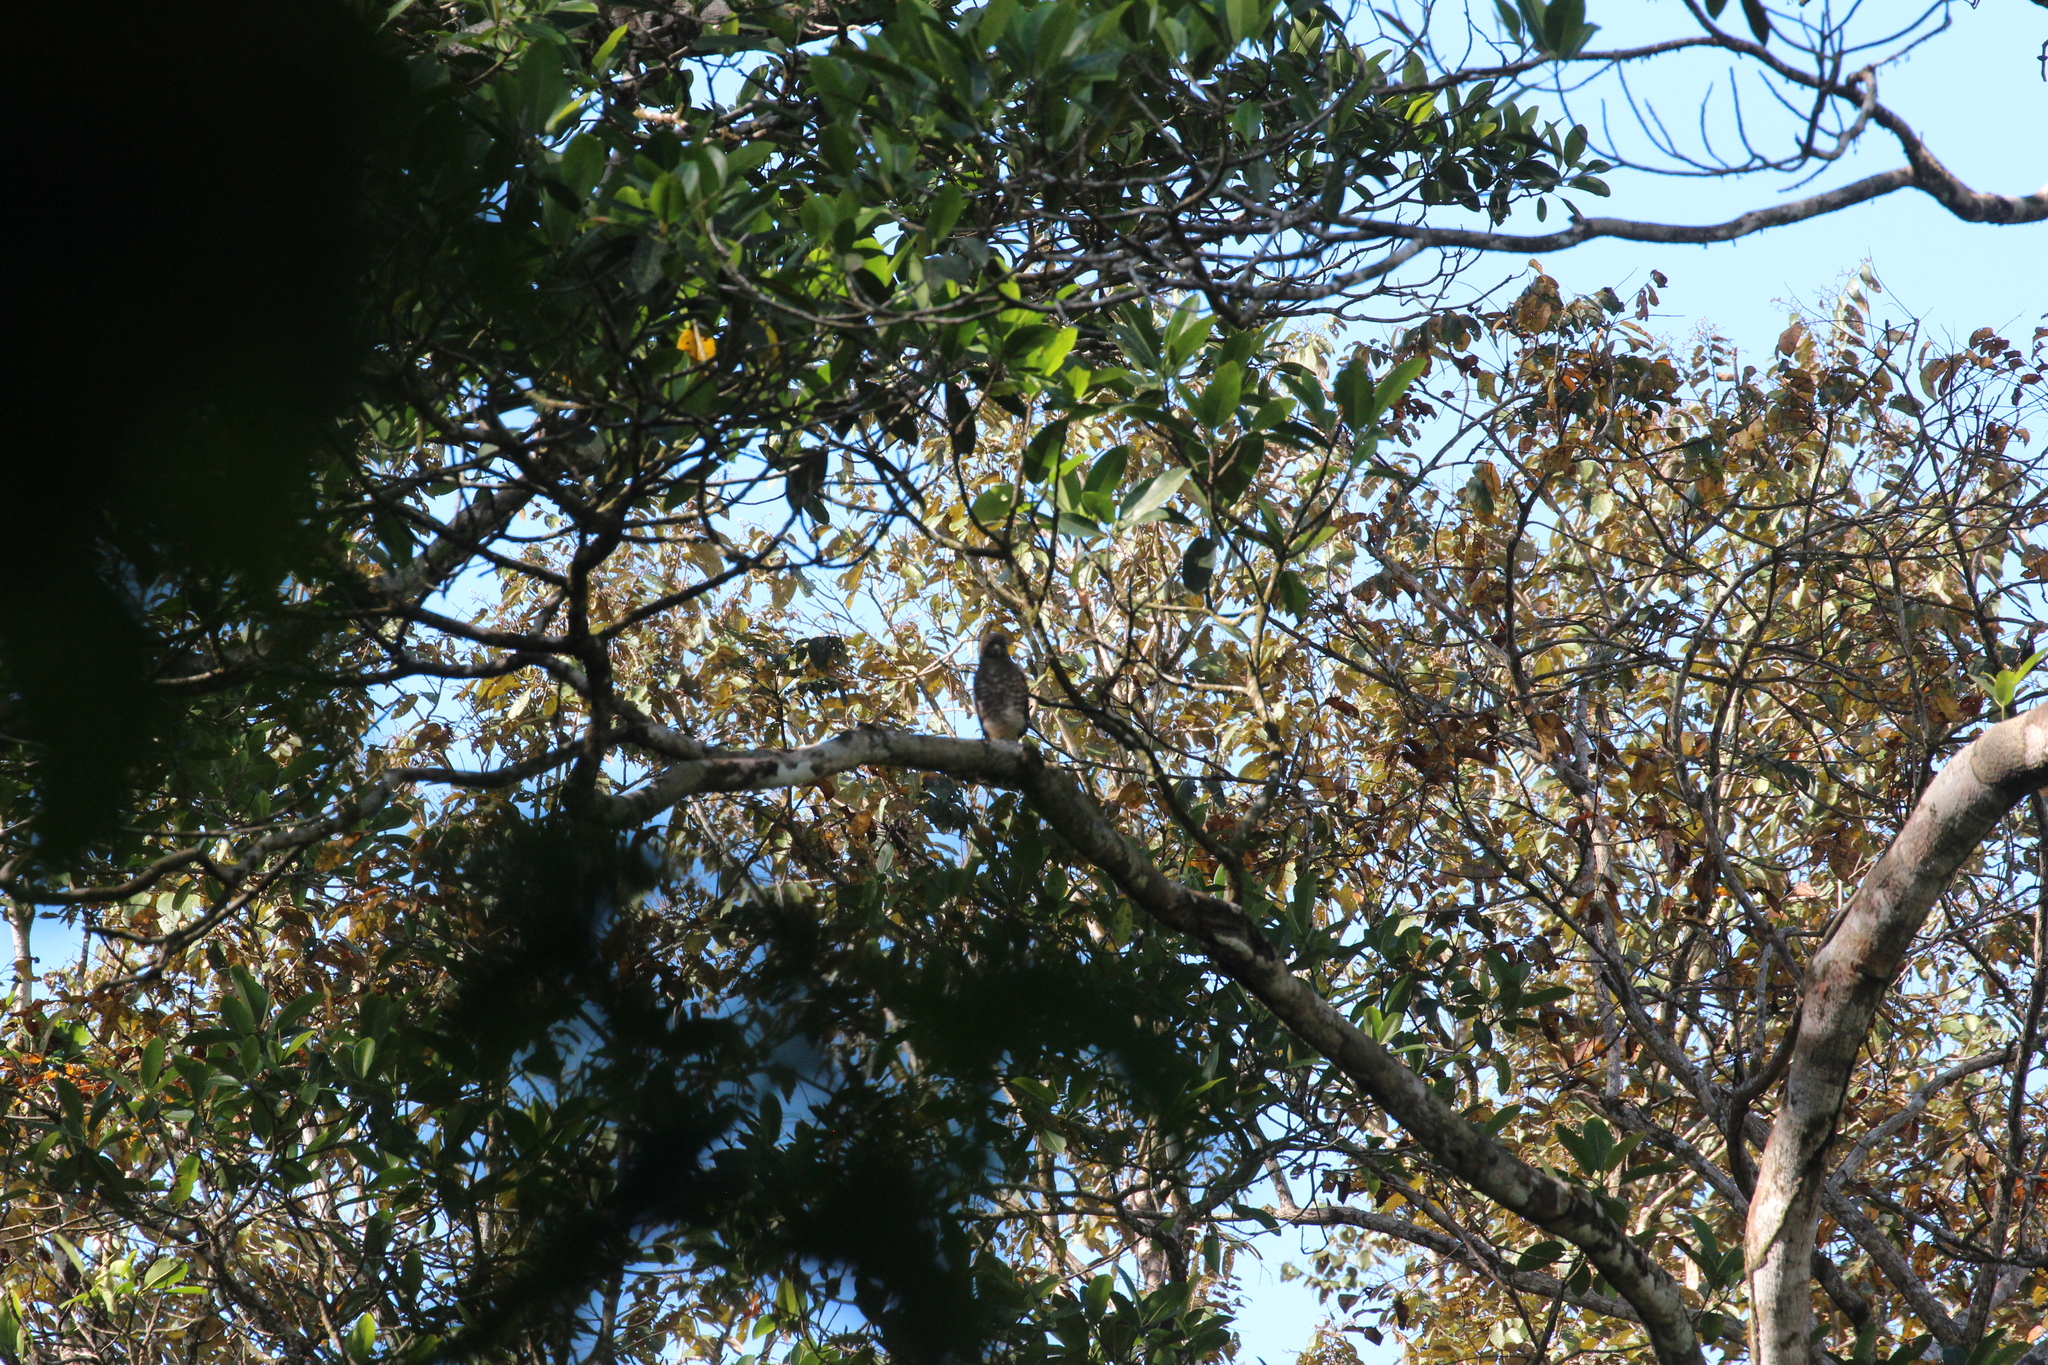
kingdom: Animalia
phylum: Chordata
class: Aves
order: Accipitriformes
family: Accipitridae
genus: Buteo
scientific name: Buteo platypterus
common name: Broad-winged hawk
